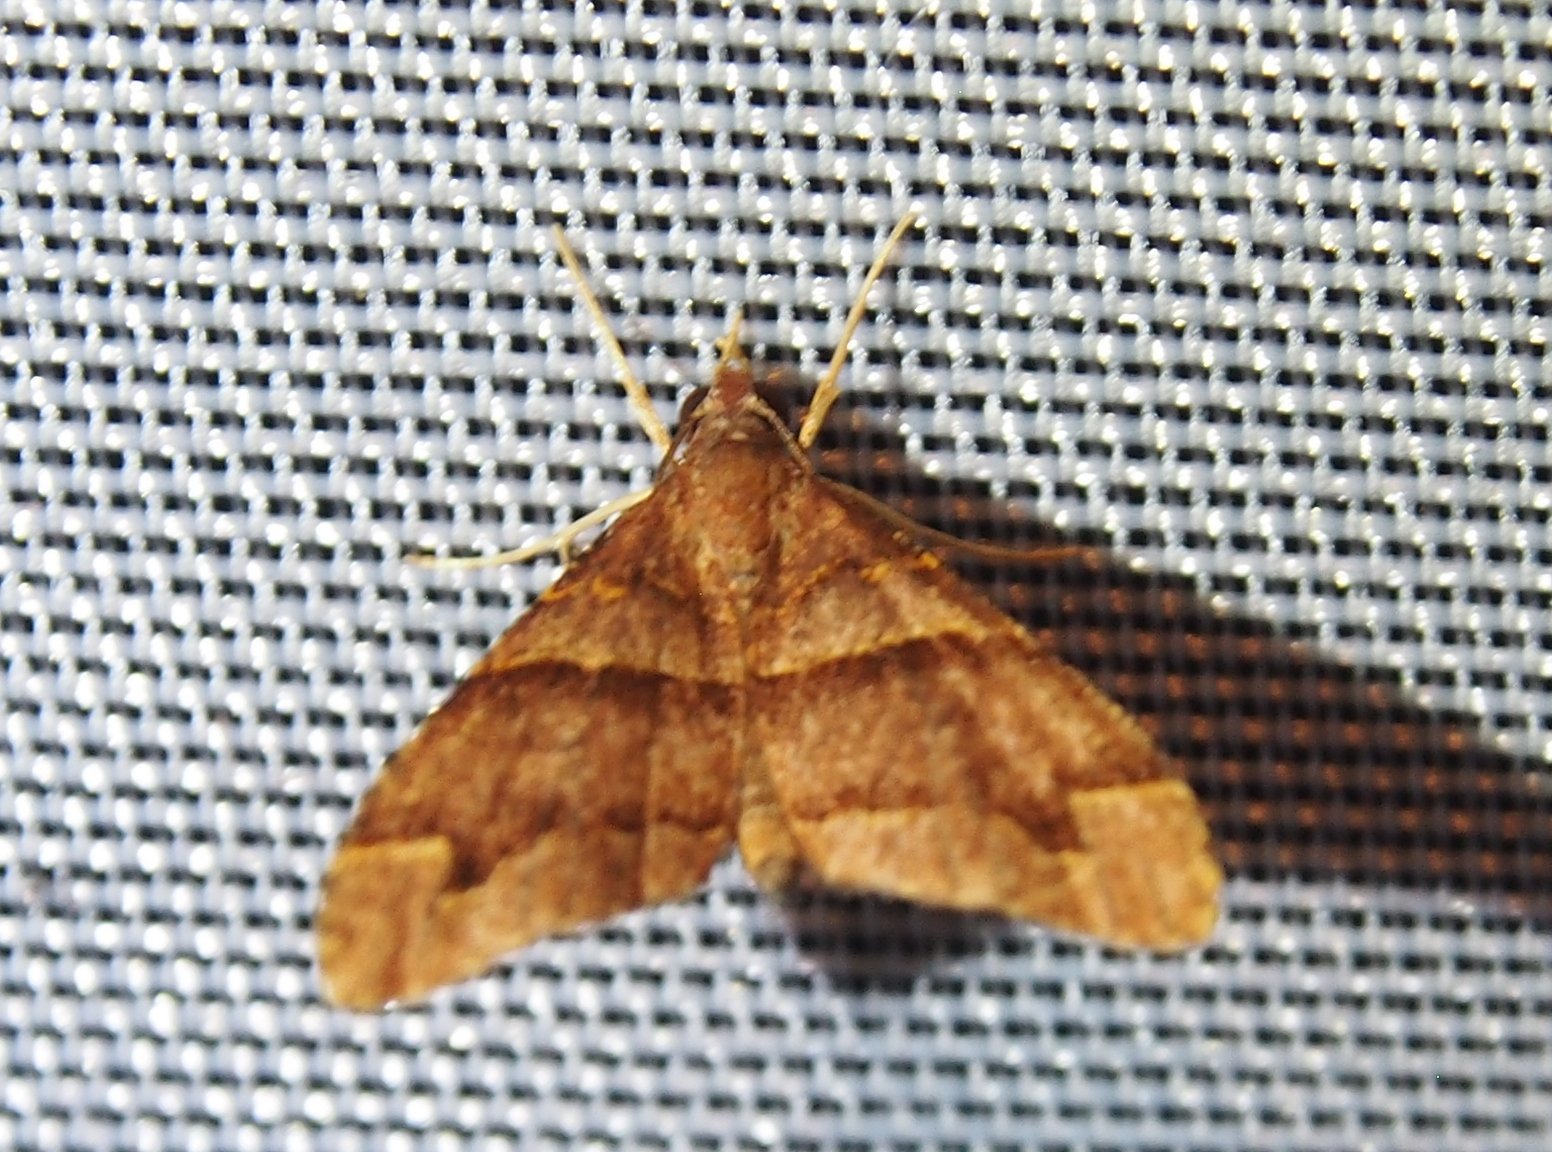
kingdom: Animalia
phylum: Arthropoda
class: Insecta
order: Lepidoptera
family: Geometridae
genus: Psaliodes
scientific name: Psaliodes cronia
